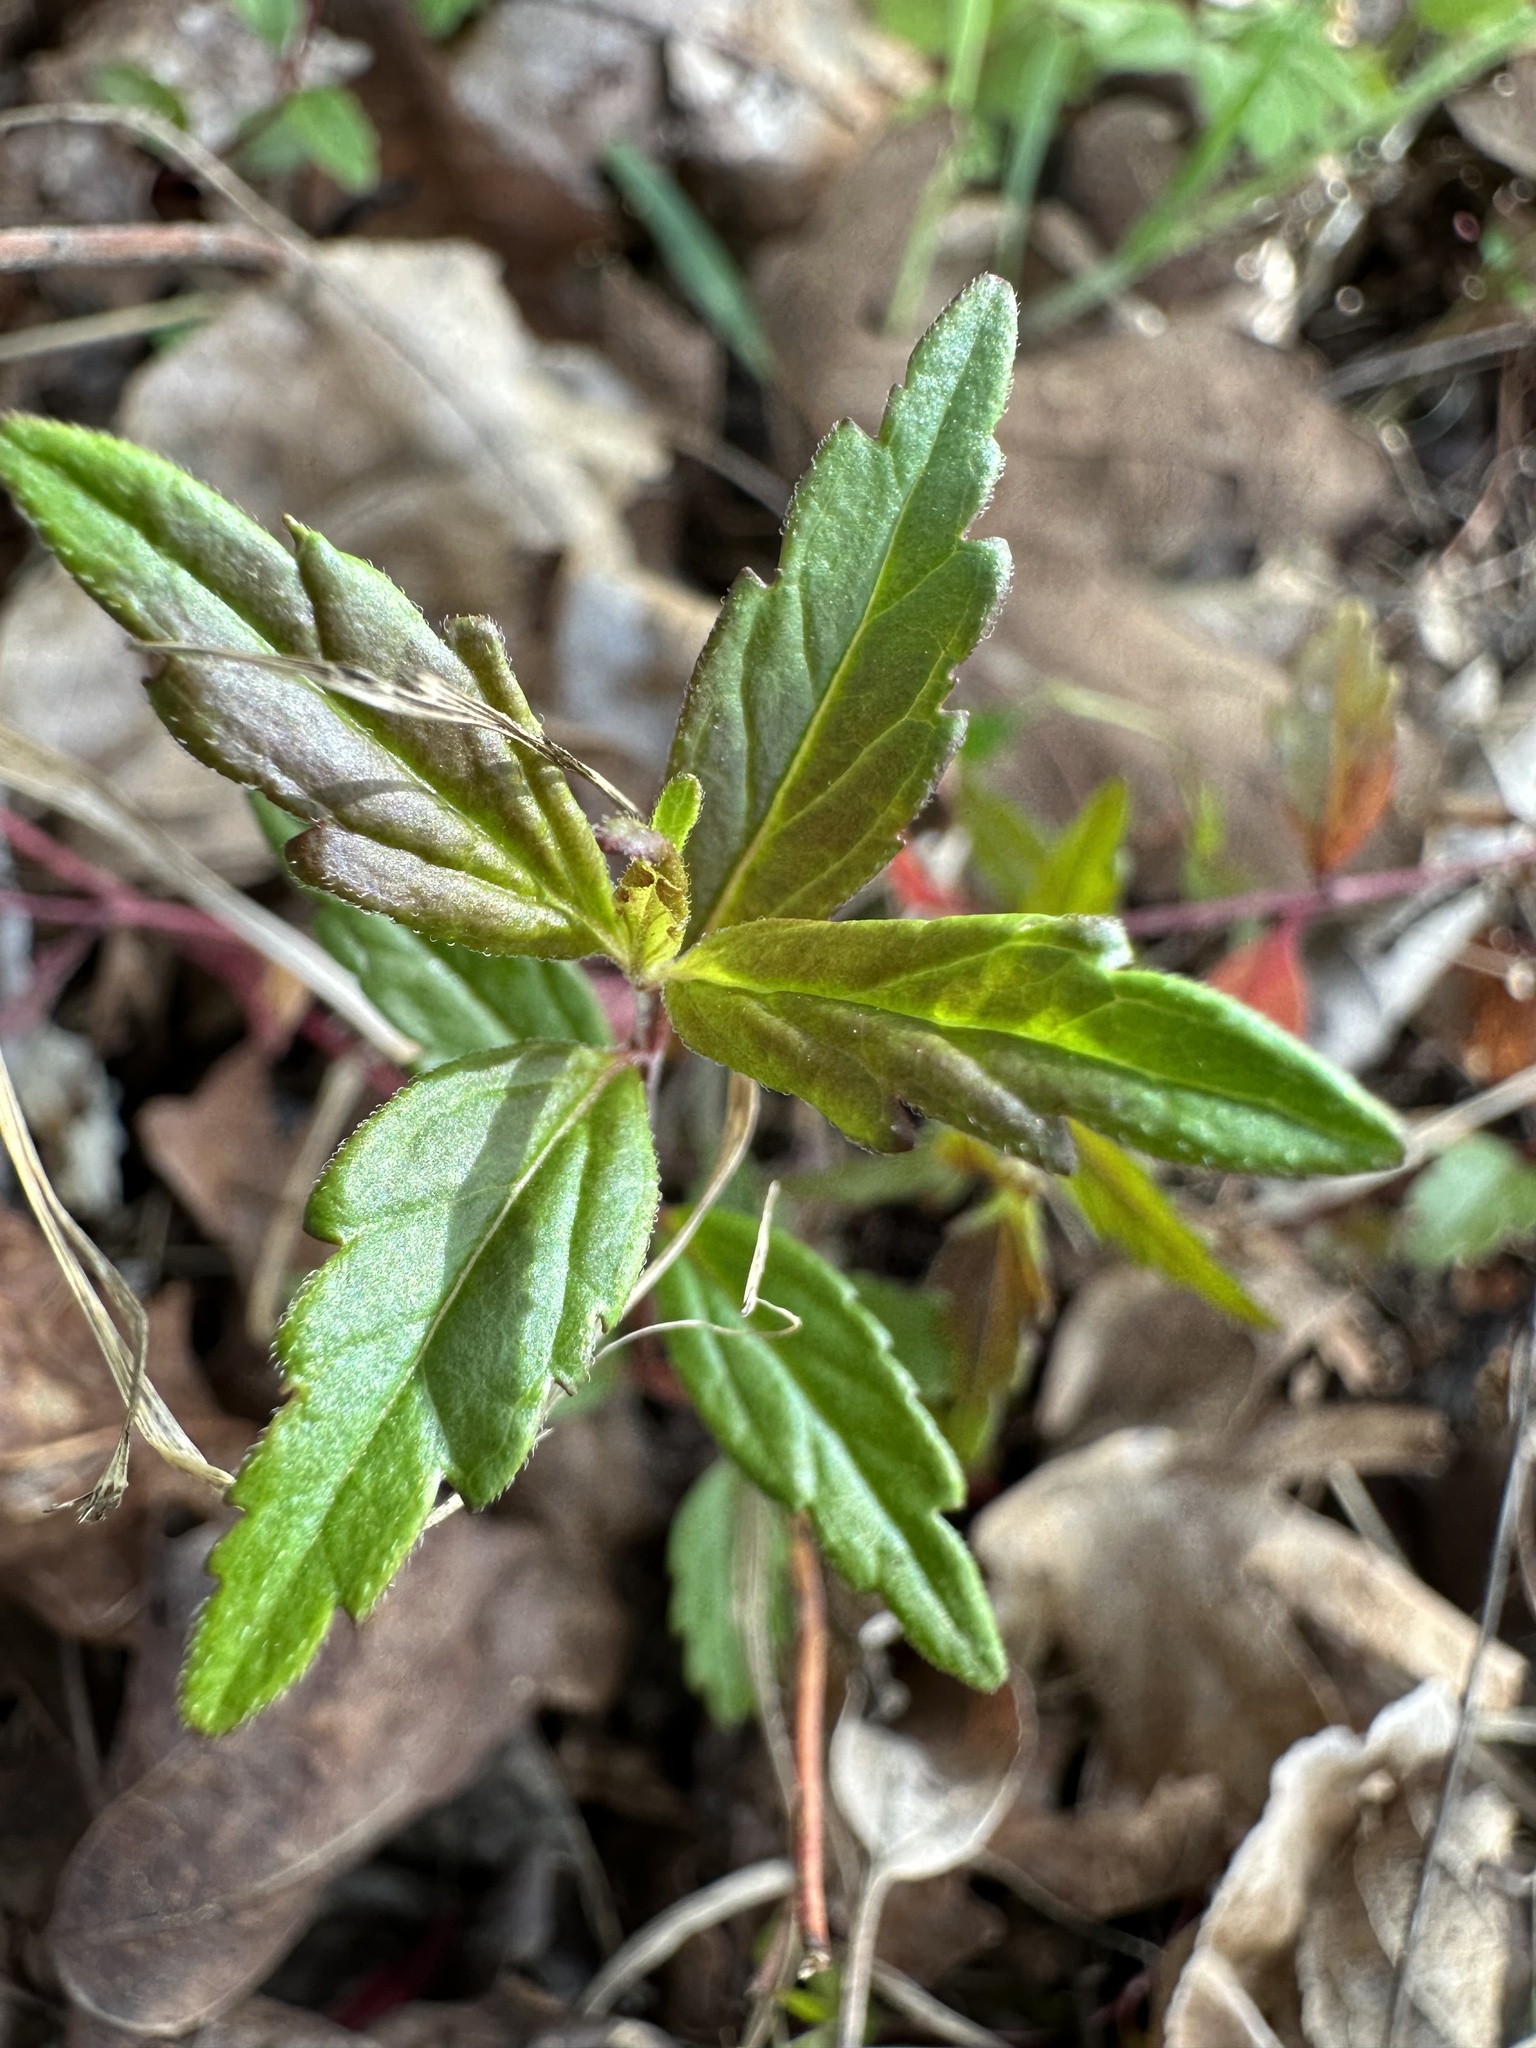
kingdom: Plantae
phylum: Tracheophyta
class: Magnoliopsida
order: Lamiales
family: Plantaginaceae
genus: Veronica
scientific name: Veronica
